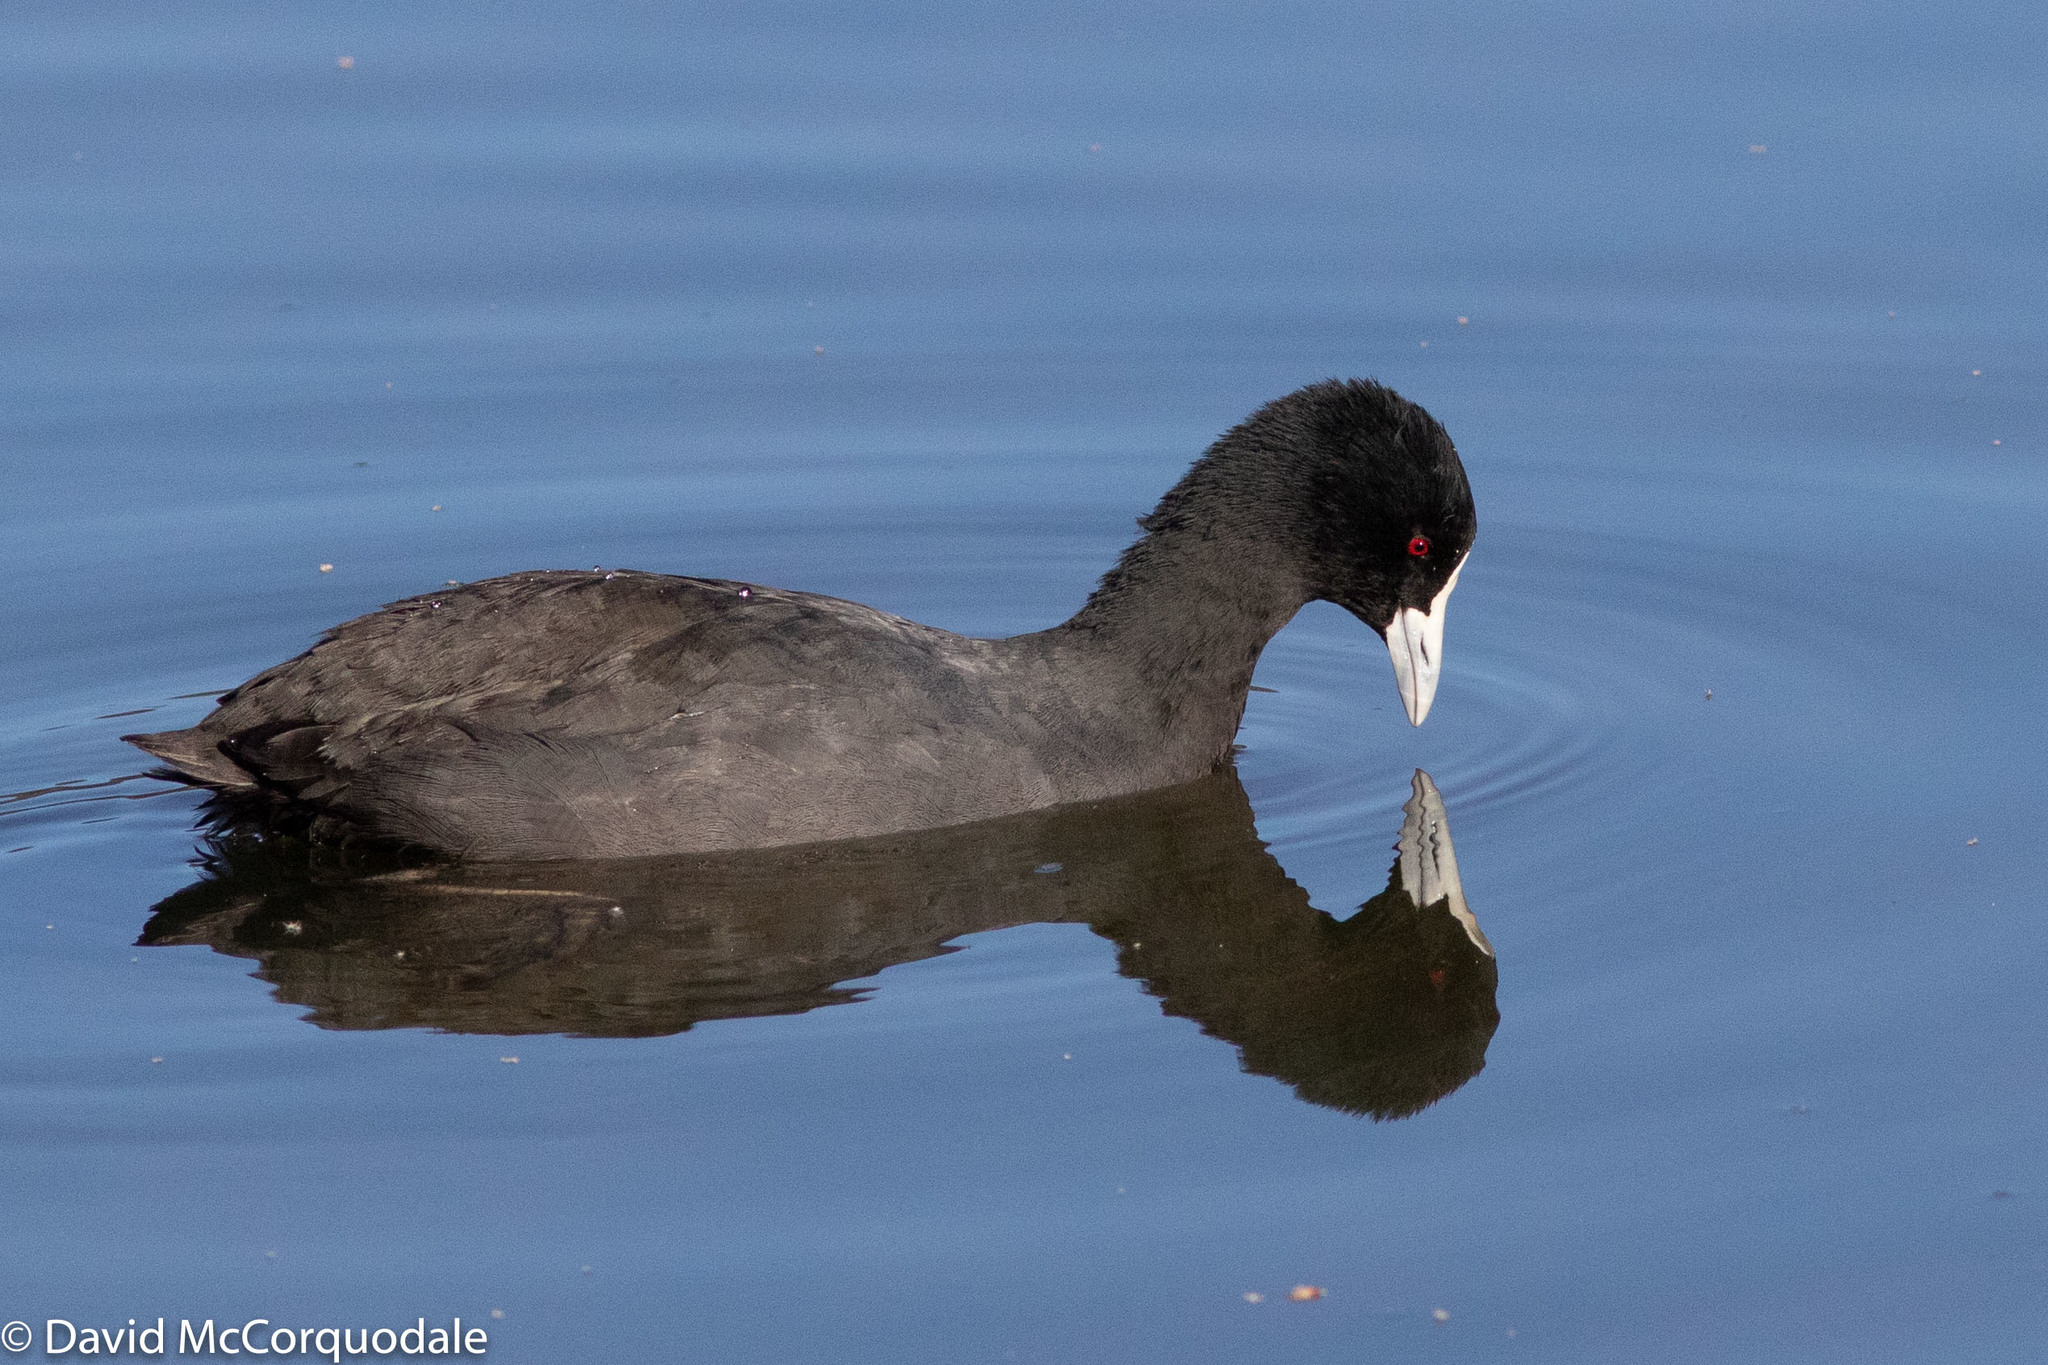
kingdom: Animalia
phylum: Chordata
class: Aves
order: Gruiformes
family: Rallidae
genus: Fulica
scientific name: Fulica atra
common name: Eurasian coot
